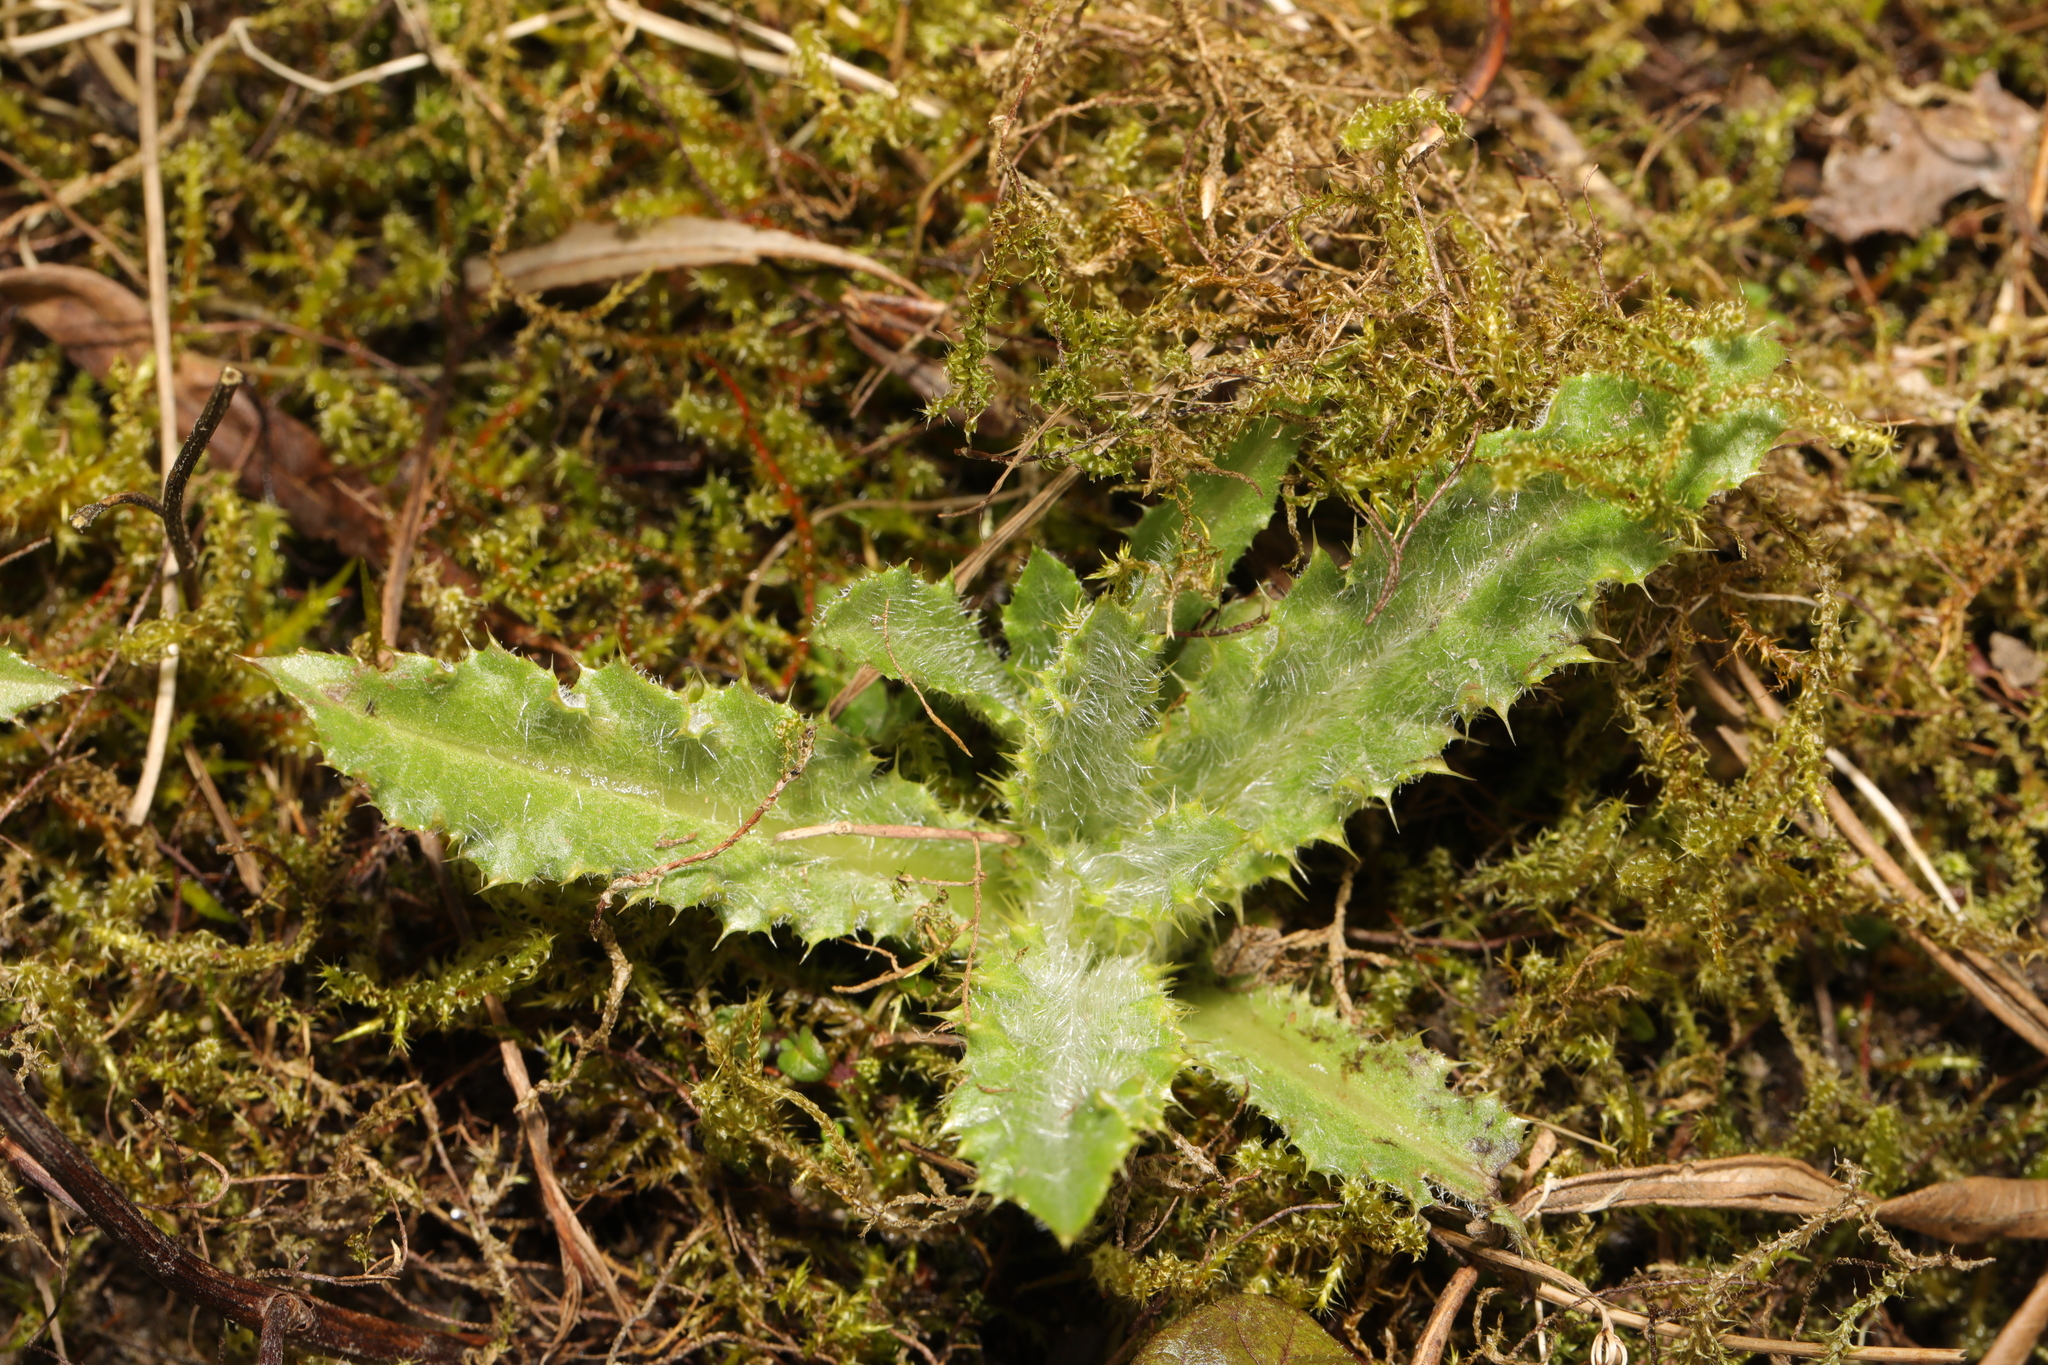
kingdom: Plantae
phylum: Tracheophyta
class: Magnoliopsida
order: Asterales
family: Asteraceae
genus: Cirsium
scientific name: Cirsium arvense
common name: Creeping thistle
